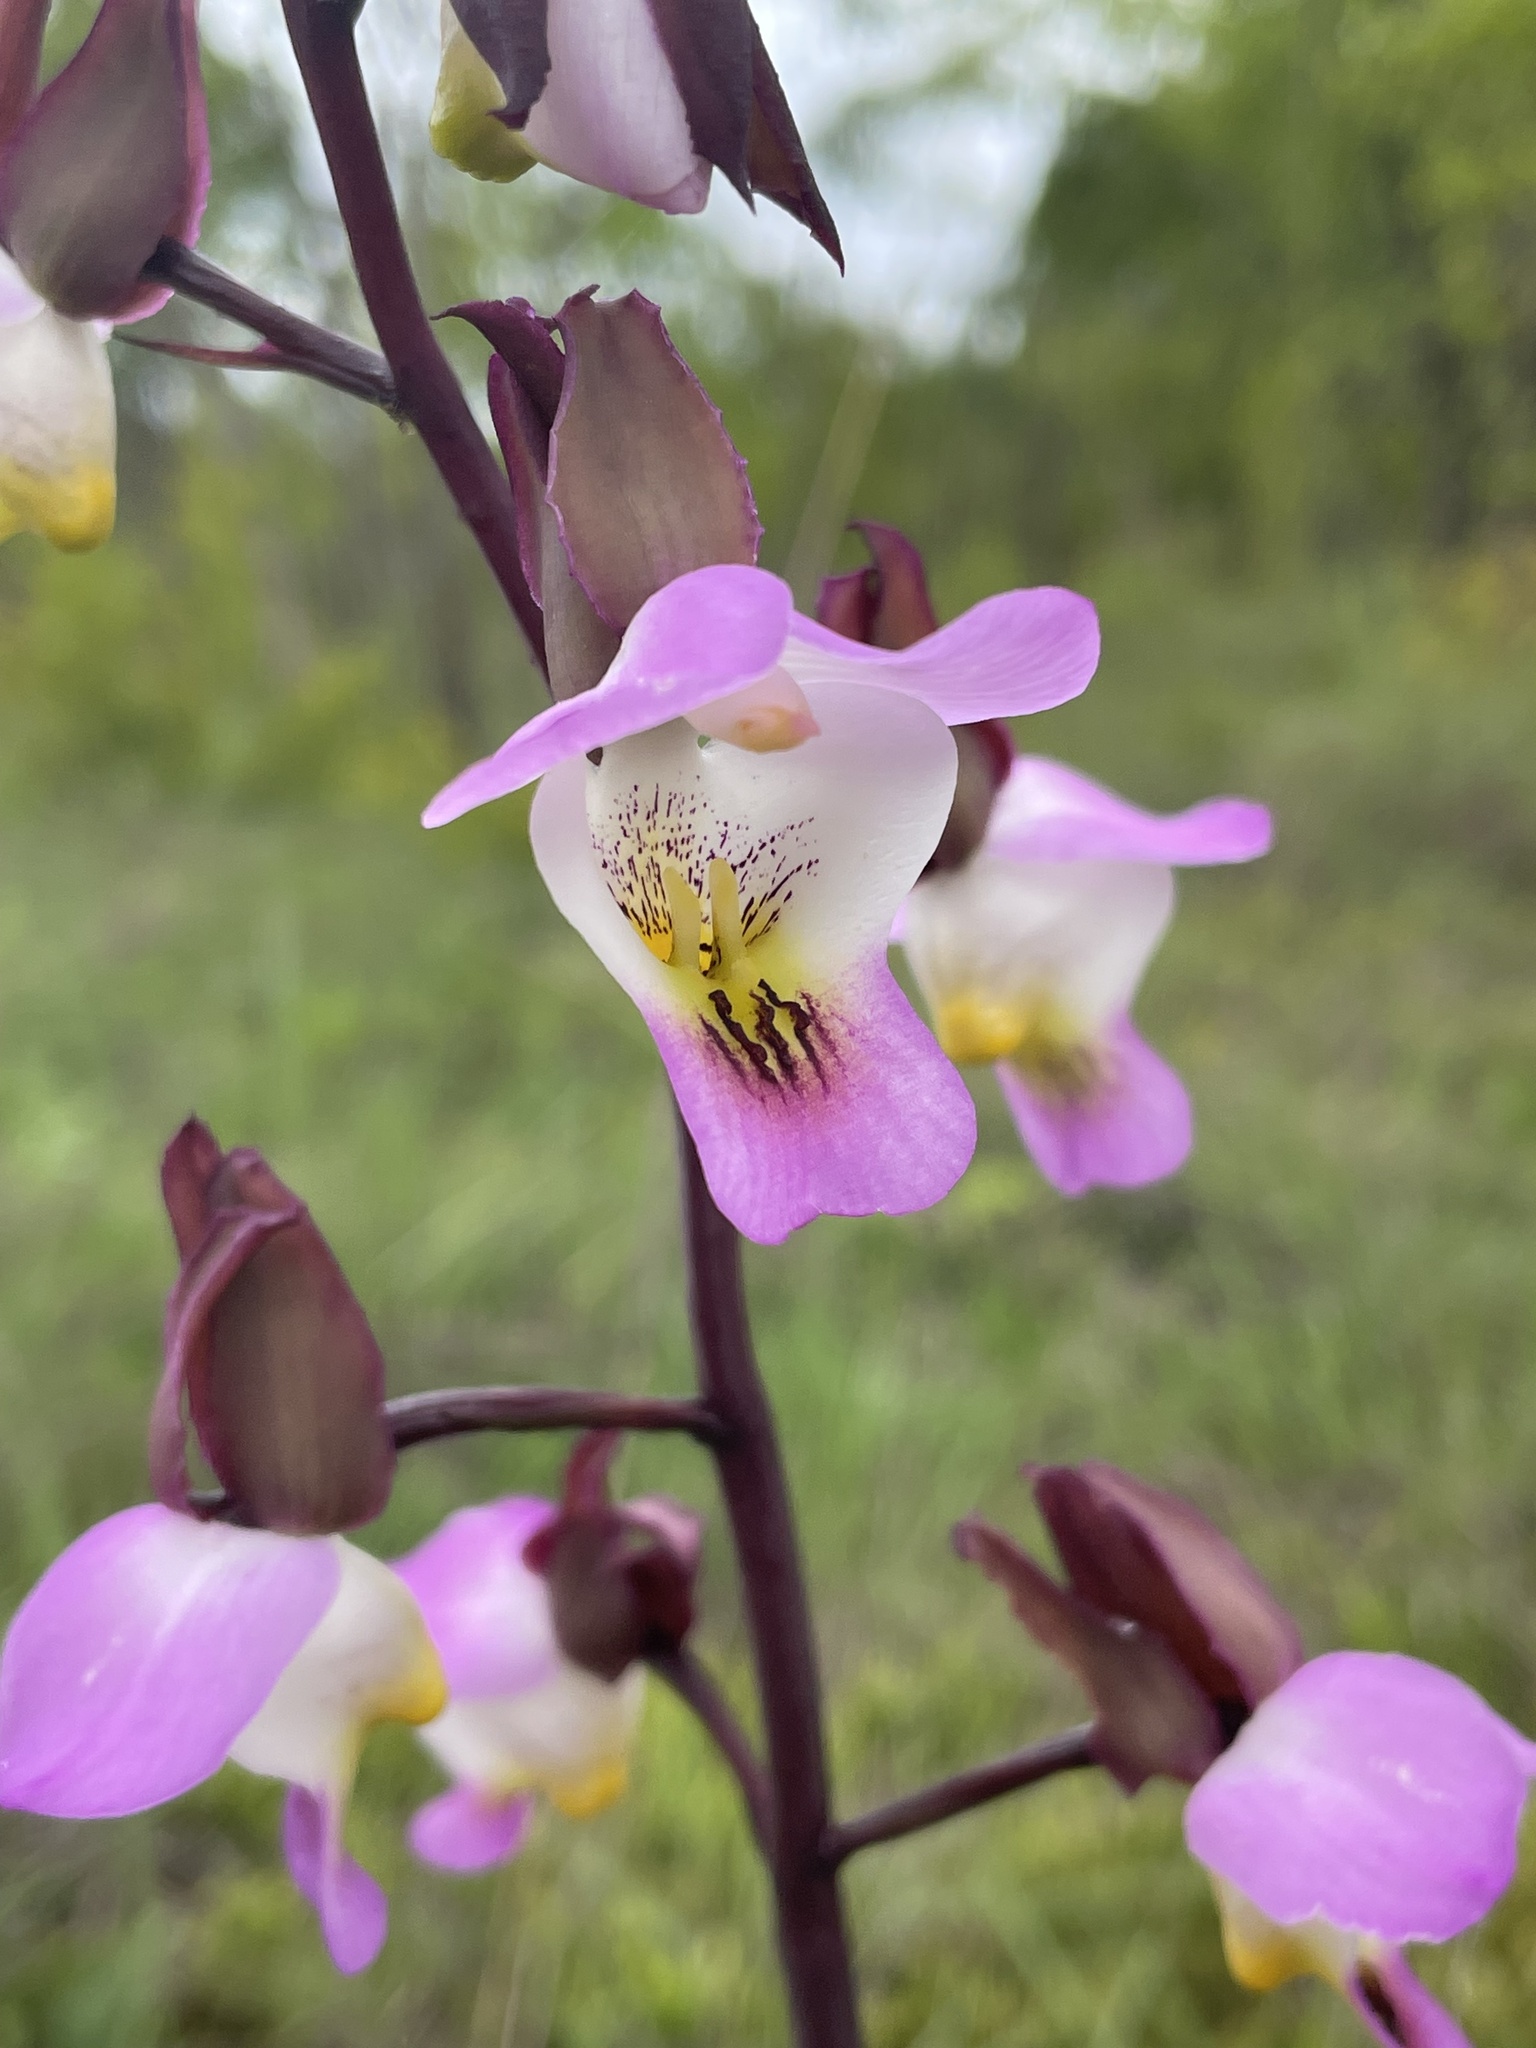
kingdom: Plantae
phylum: Tracheophyta
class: Liliopsida
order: Asparagales
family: Orchidaceae
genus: Eulophia
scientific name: Eulophia cucullata
